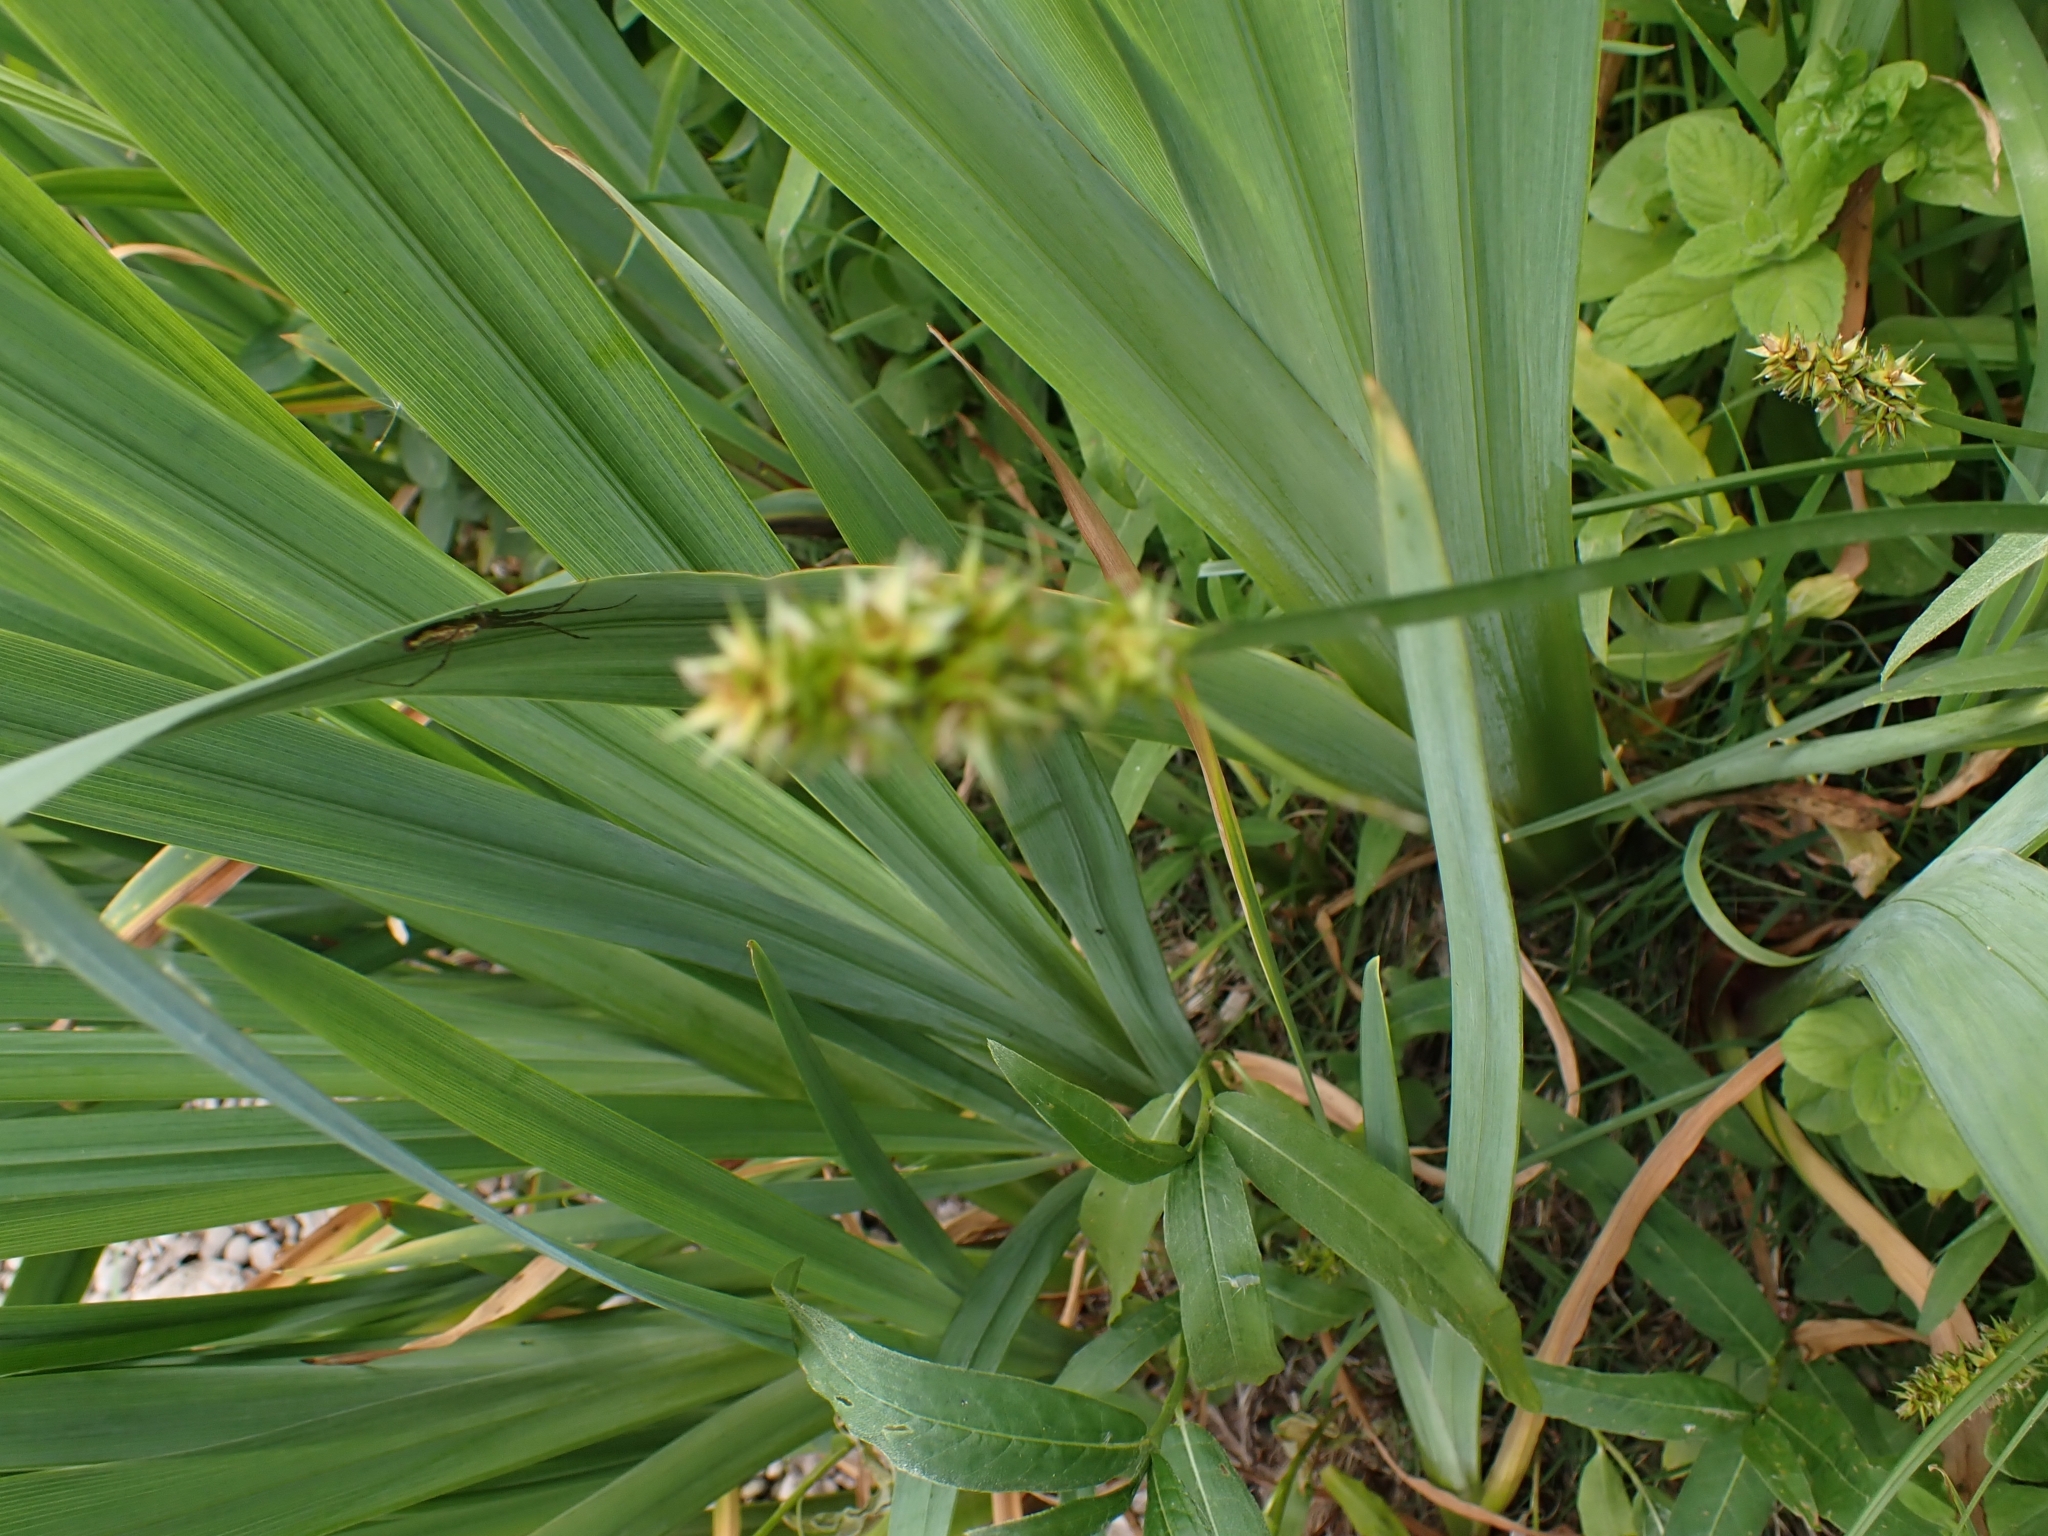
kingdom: Plantae
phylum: Tracheophyta
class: Liliopsida
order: Poales
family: Cyperaceae
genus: Carex
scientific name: Carex otrubae
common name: False fox-sedge
